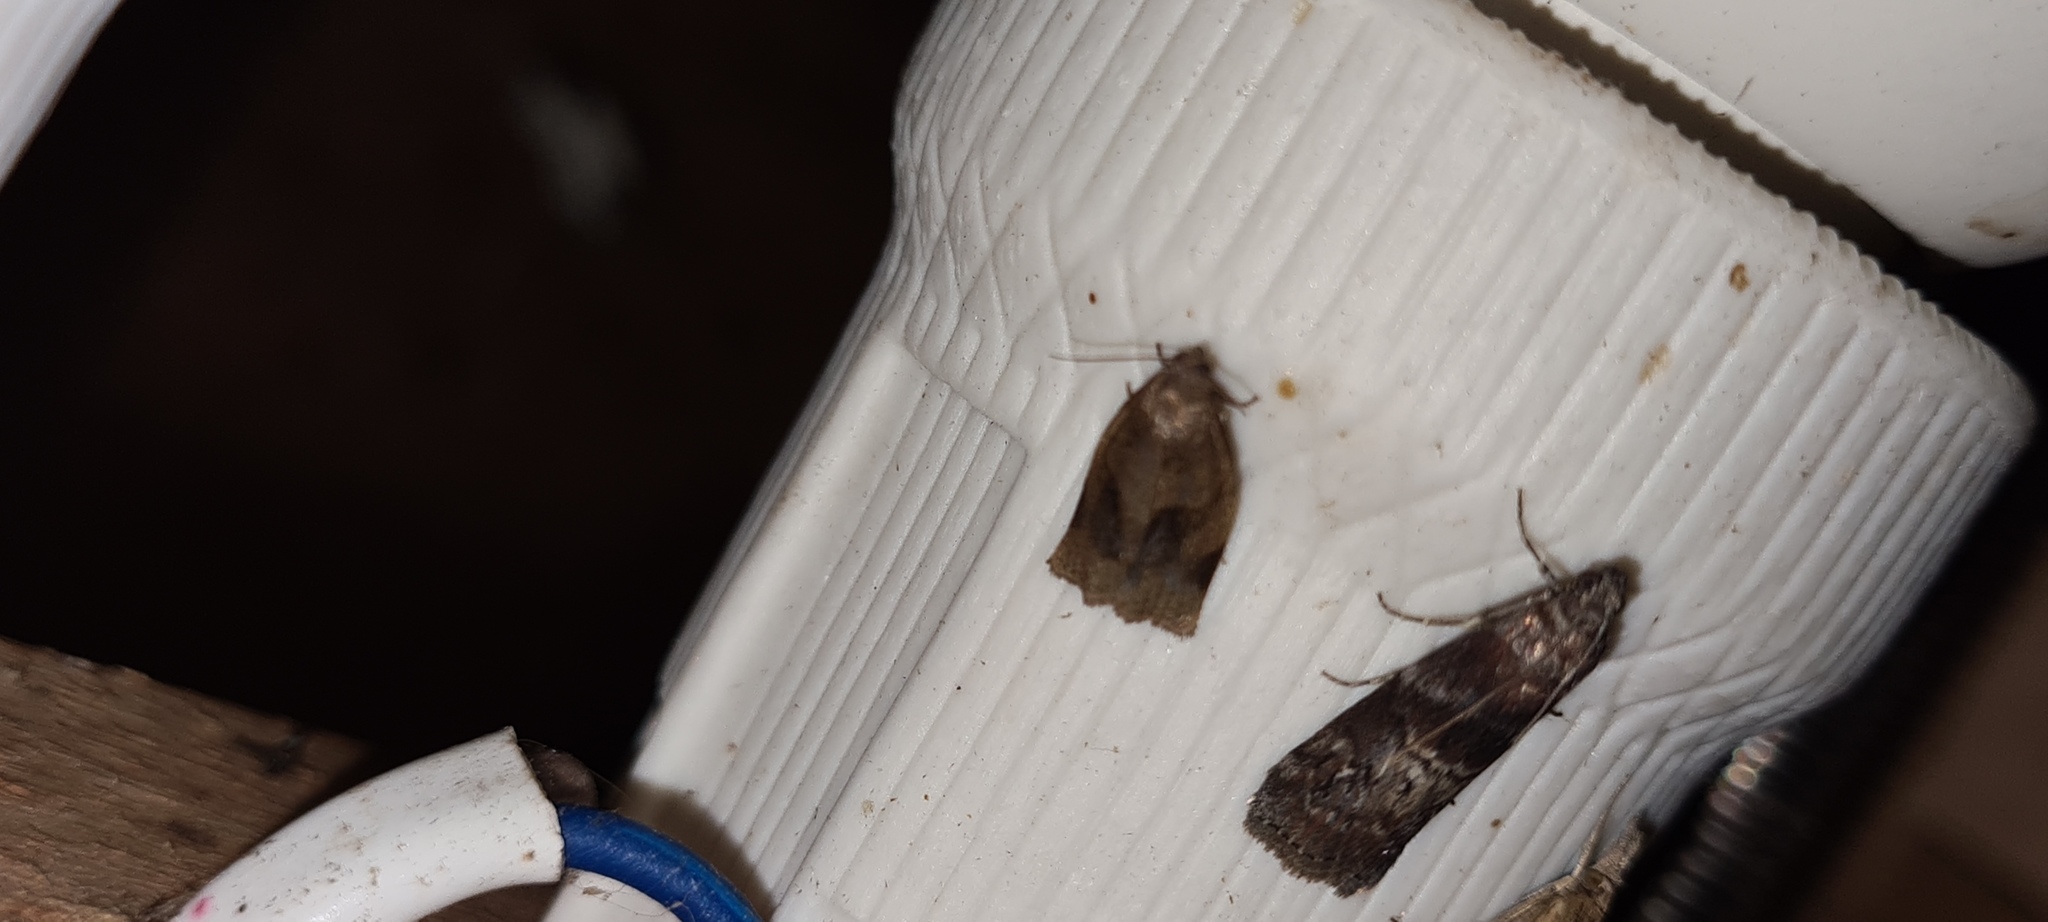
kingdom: Animalia
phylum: Arthropoda
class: Insecta
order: Lepidoptera
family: Tortricidae
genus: Archips
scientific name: Archips podana
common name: Large fruit-tree tortrix
